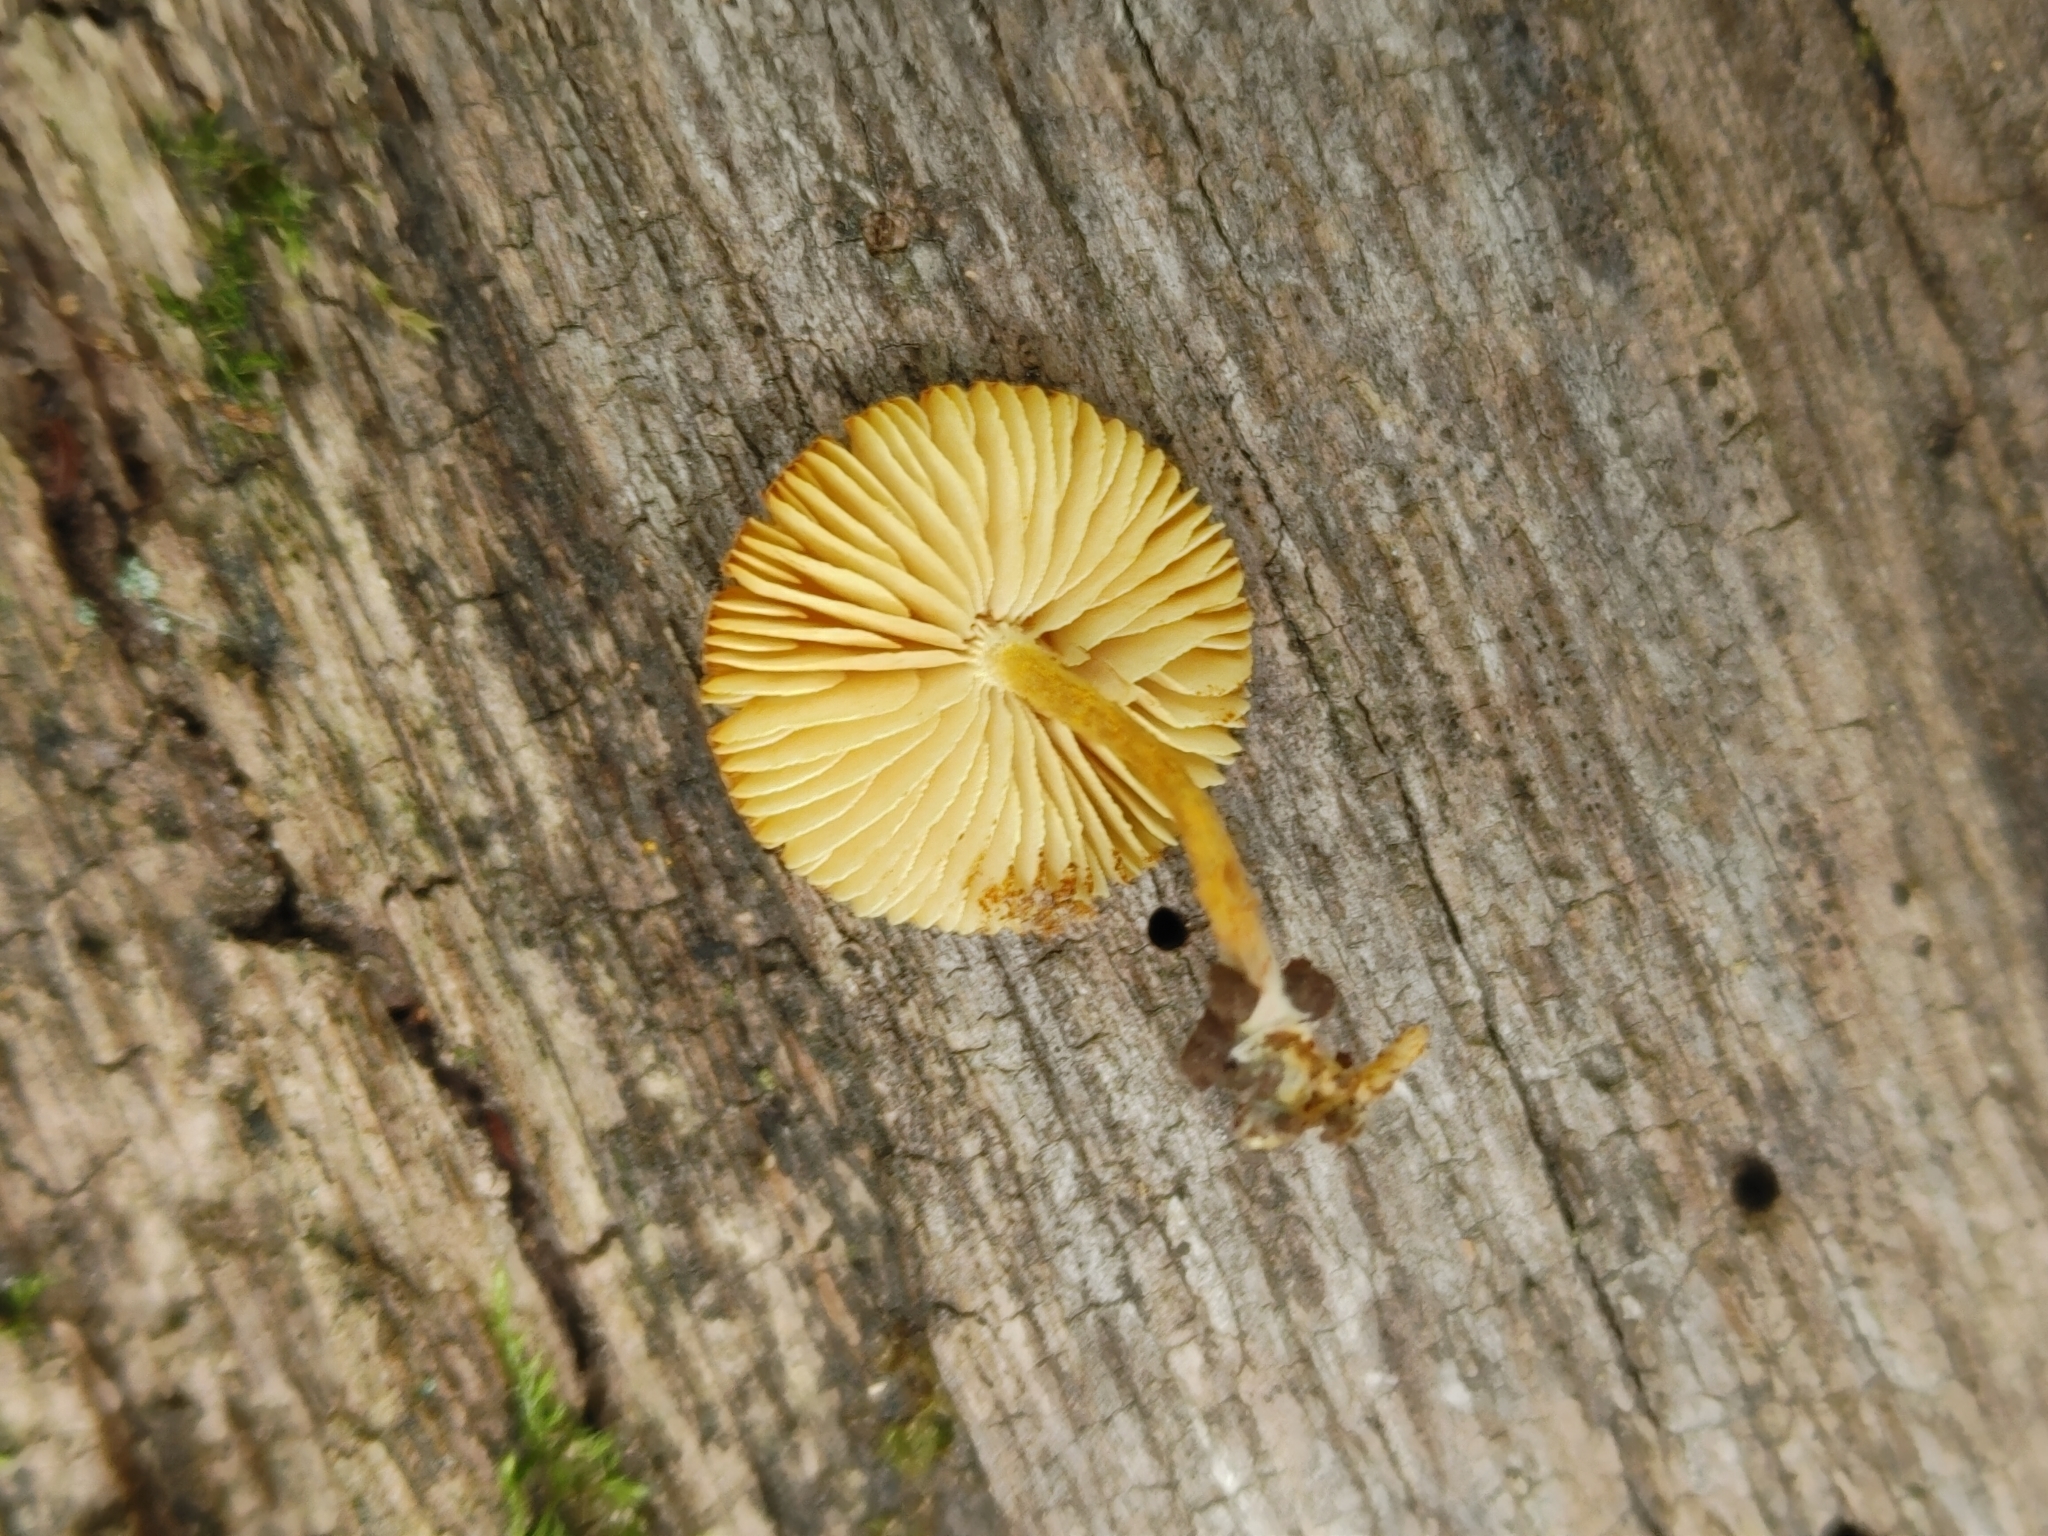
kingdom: Fungi
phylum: Basidiomycota
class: Agaricomycetes
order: Agaricales
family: Tubariaceae
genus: Flammulaster
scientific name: Flammulaster erinaceellus
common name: Powder-scale pholiota
